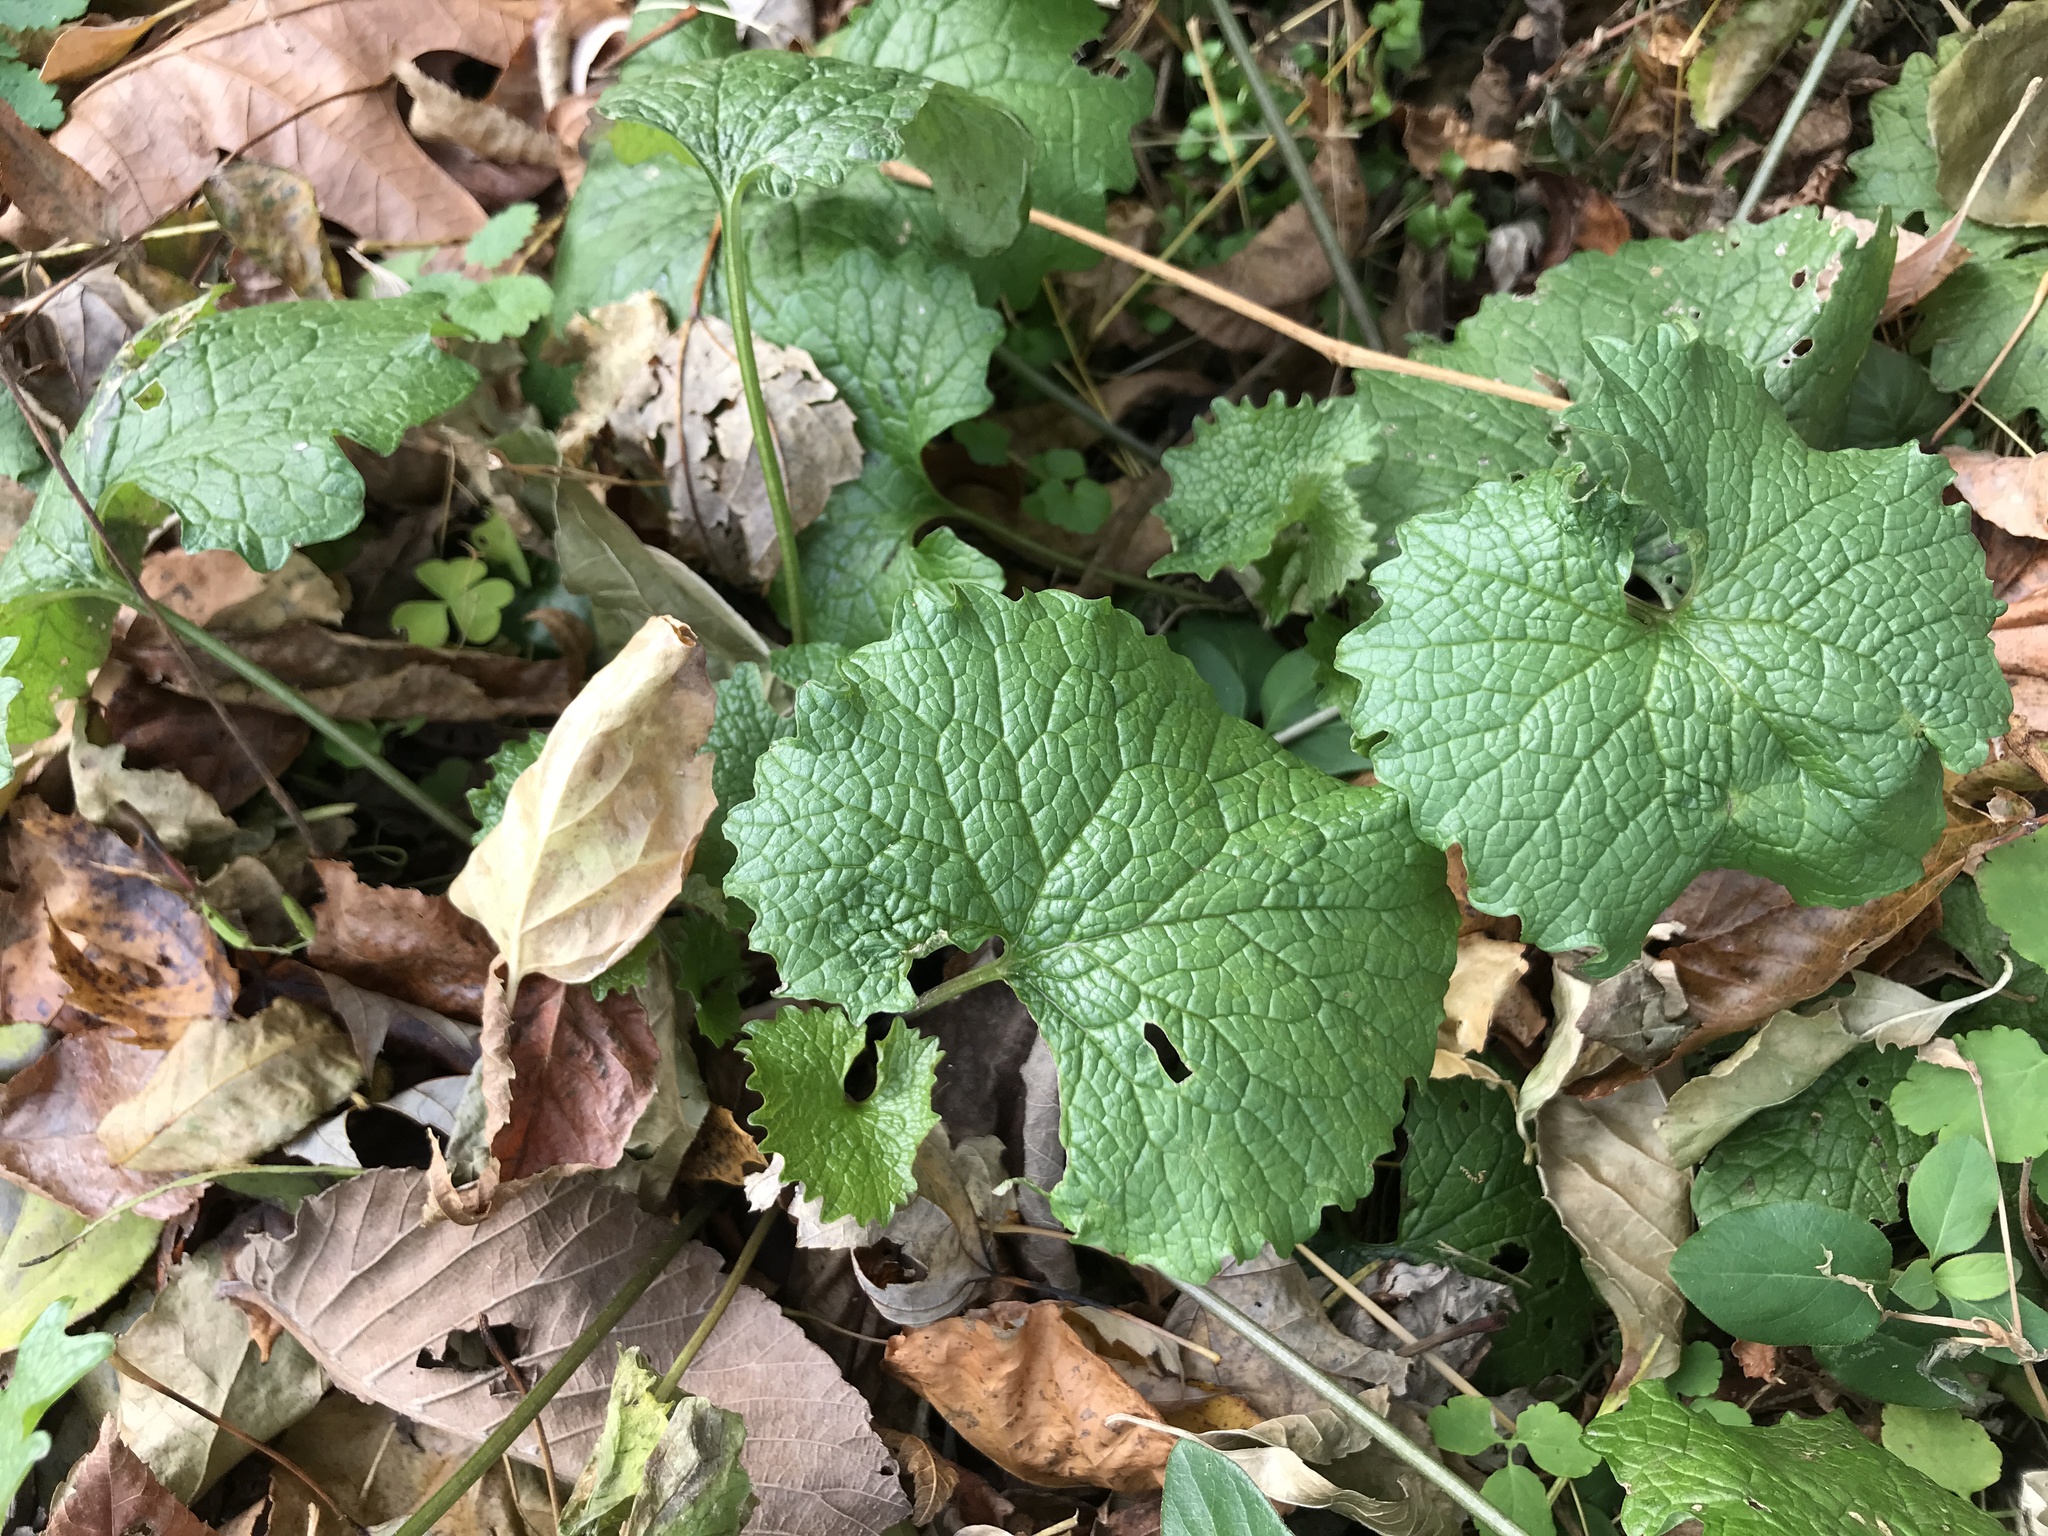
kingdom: Plantae
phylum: Tracheophyta
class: Magnoliopsida
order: Brassicales
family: Brassicaceae
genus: Alliaria
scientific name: Alliaria petiolata
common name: Garlic mustard
